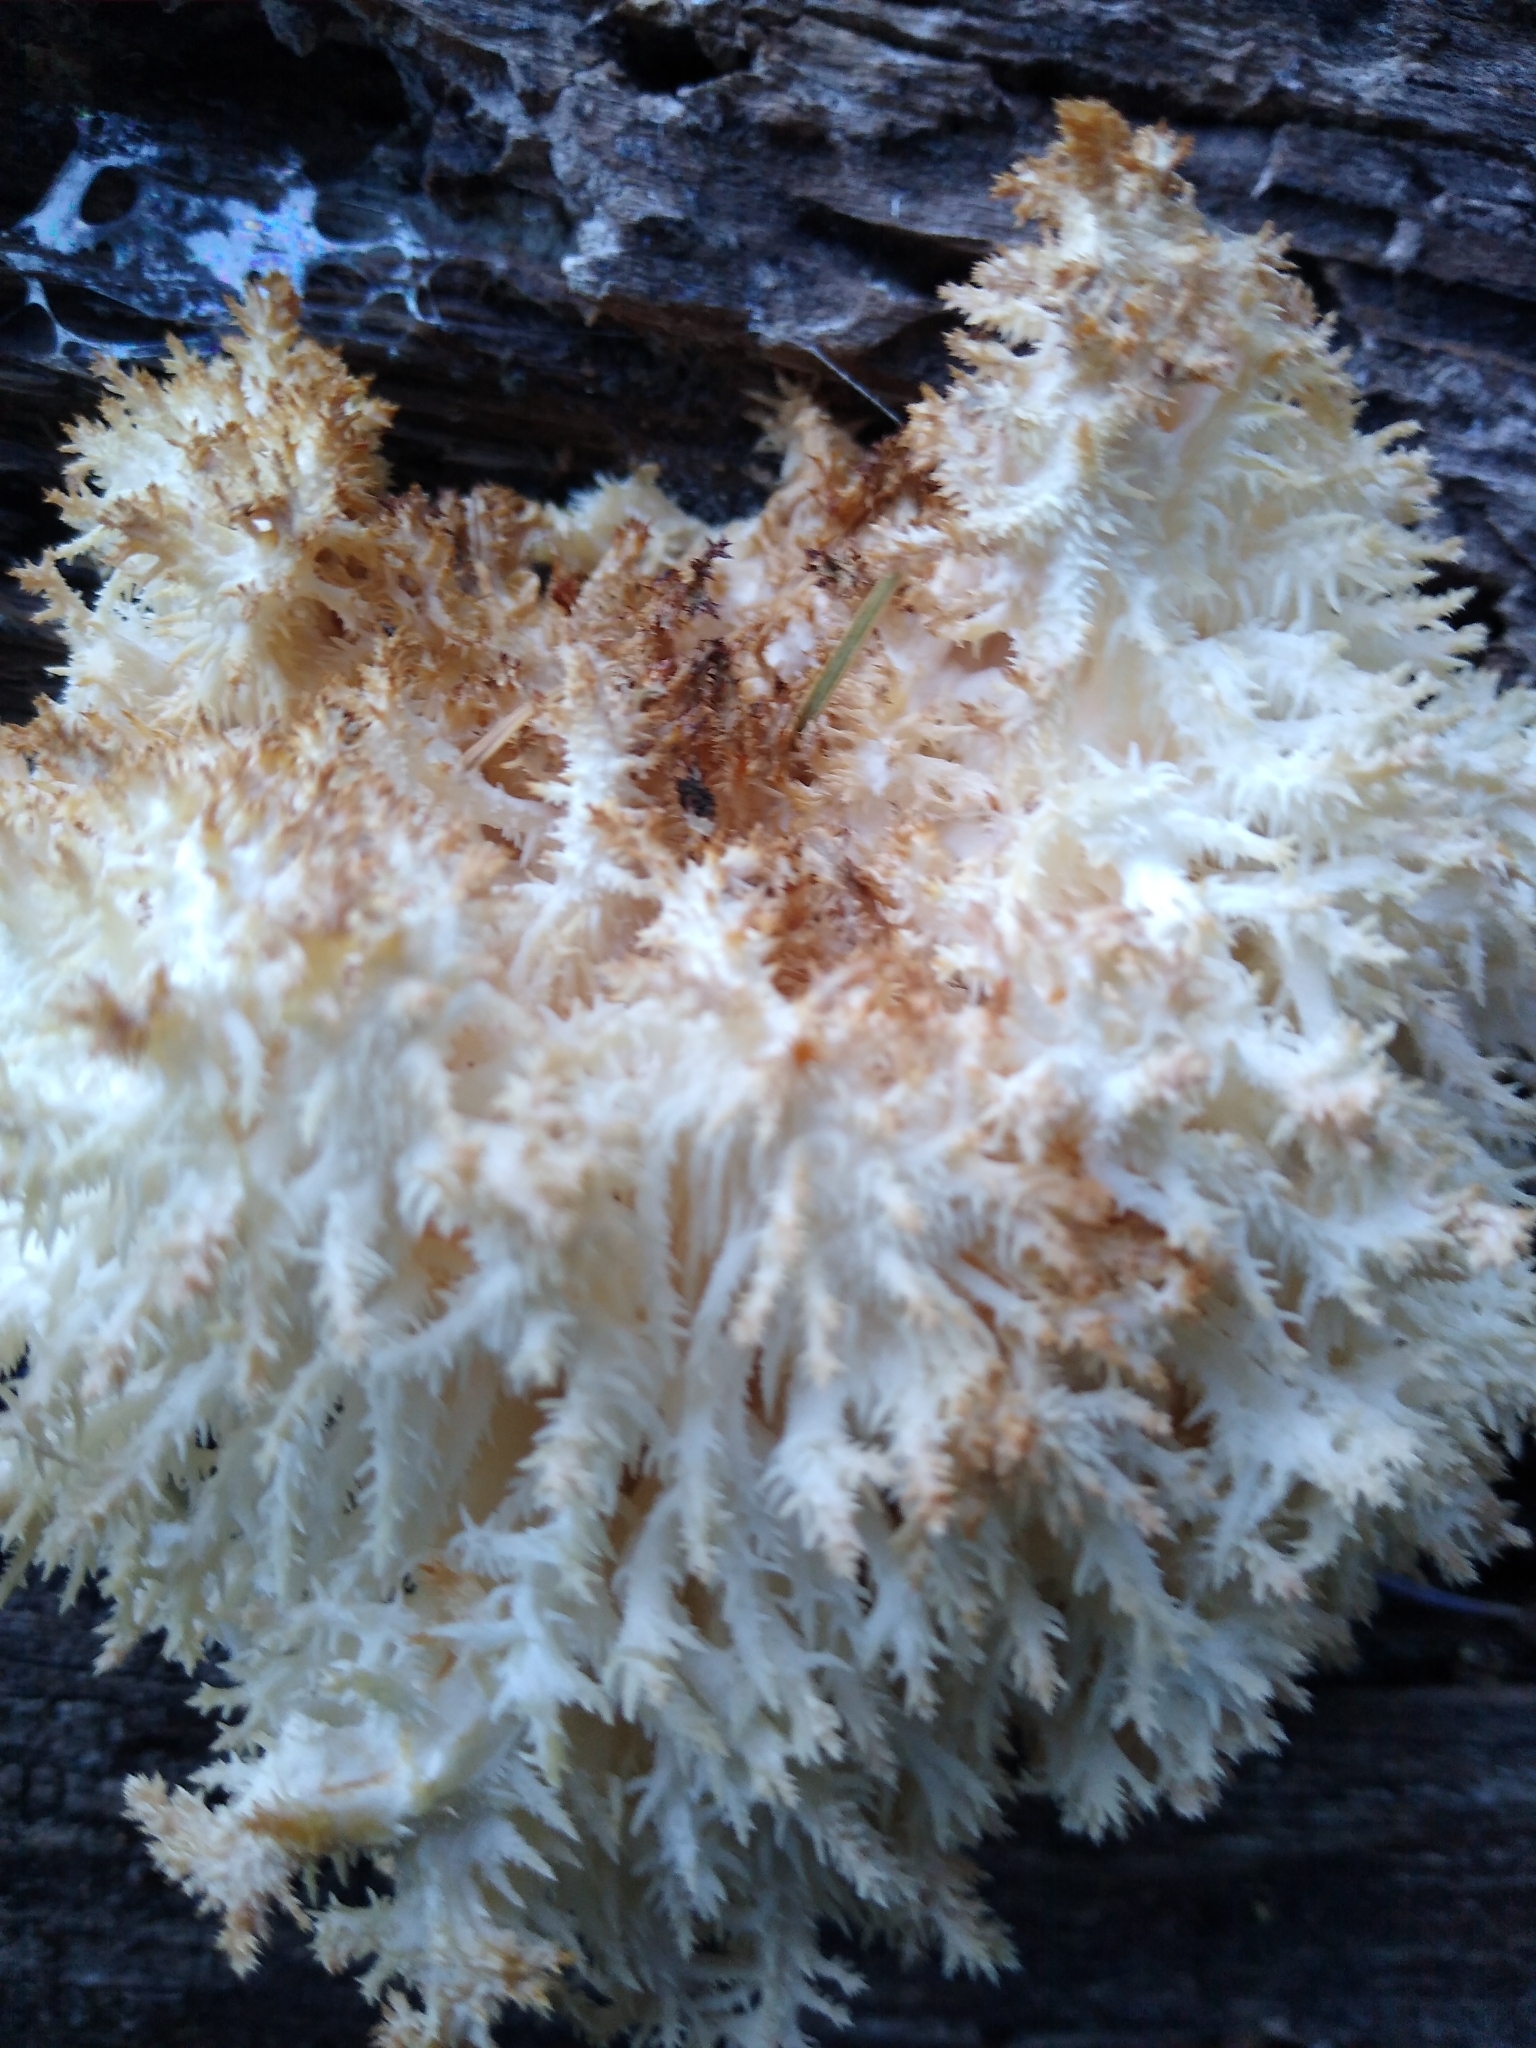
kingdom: Fungi
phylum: Basidiomycota
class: Agaricomycetes
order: Russulales
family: Hericiaceae
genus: Hericium
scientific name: Hericium coralloides
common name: Coral tooth
